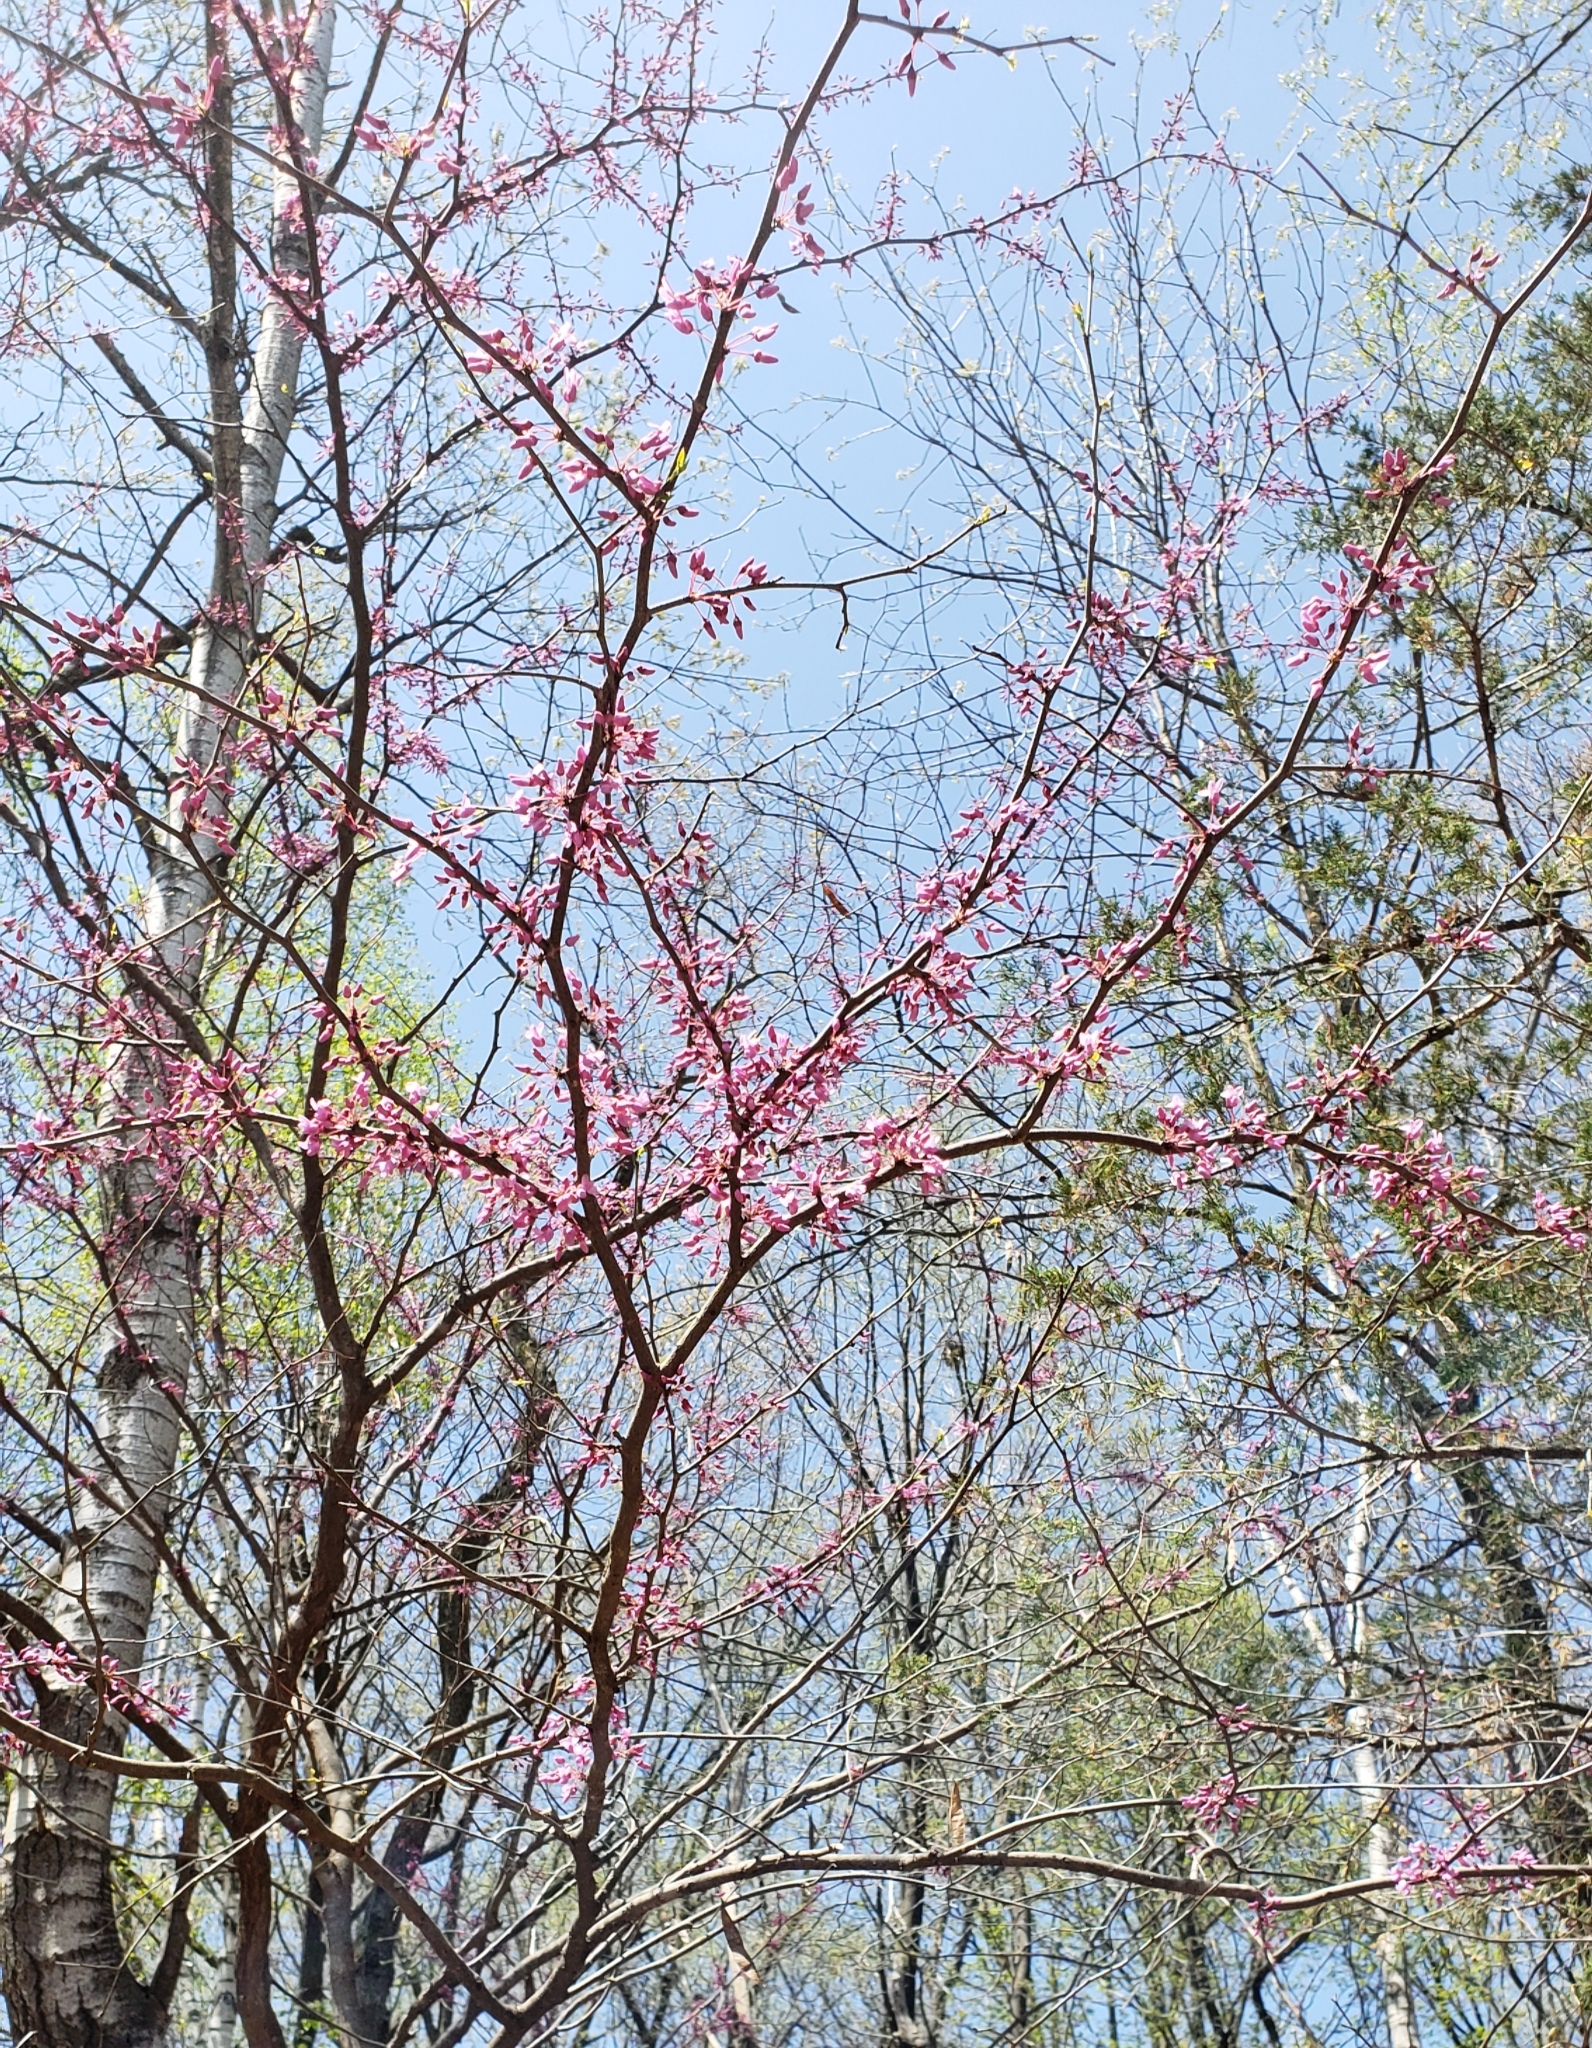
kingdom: Plantae
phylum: Tracheophyta
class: Magnoliopsida
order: Fabales
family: Fabaceae
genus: Cercis
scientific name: Cercis canadensis
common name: Eastern redbud
